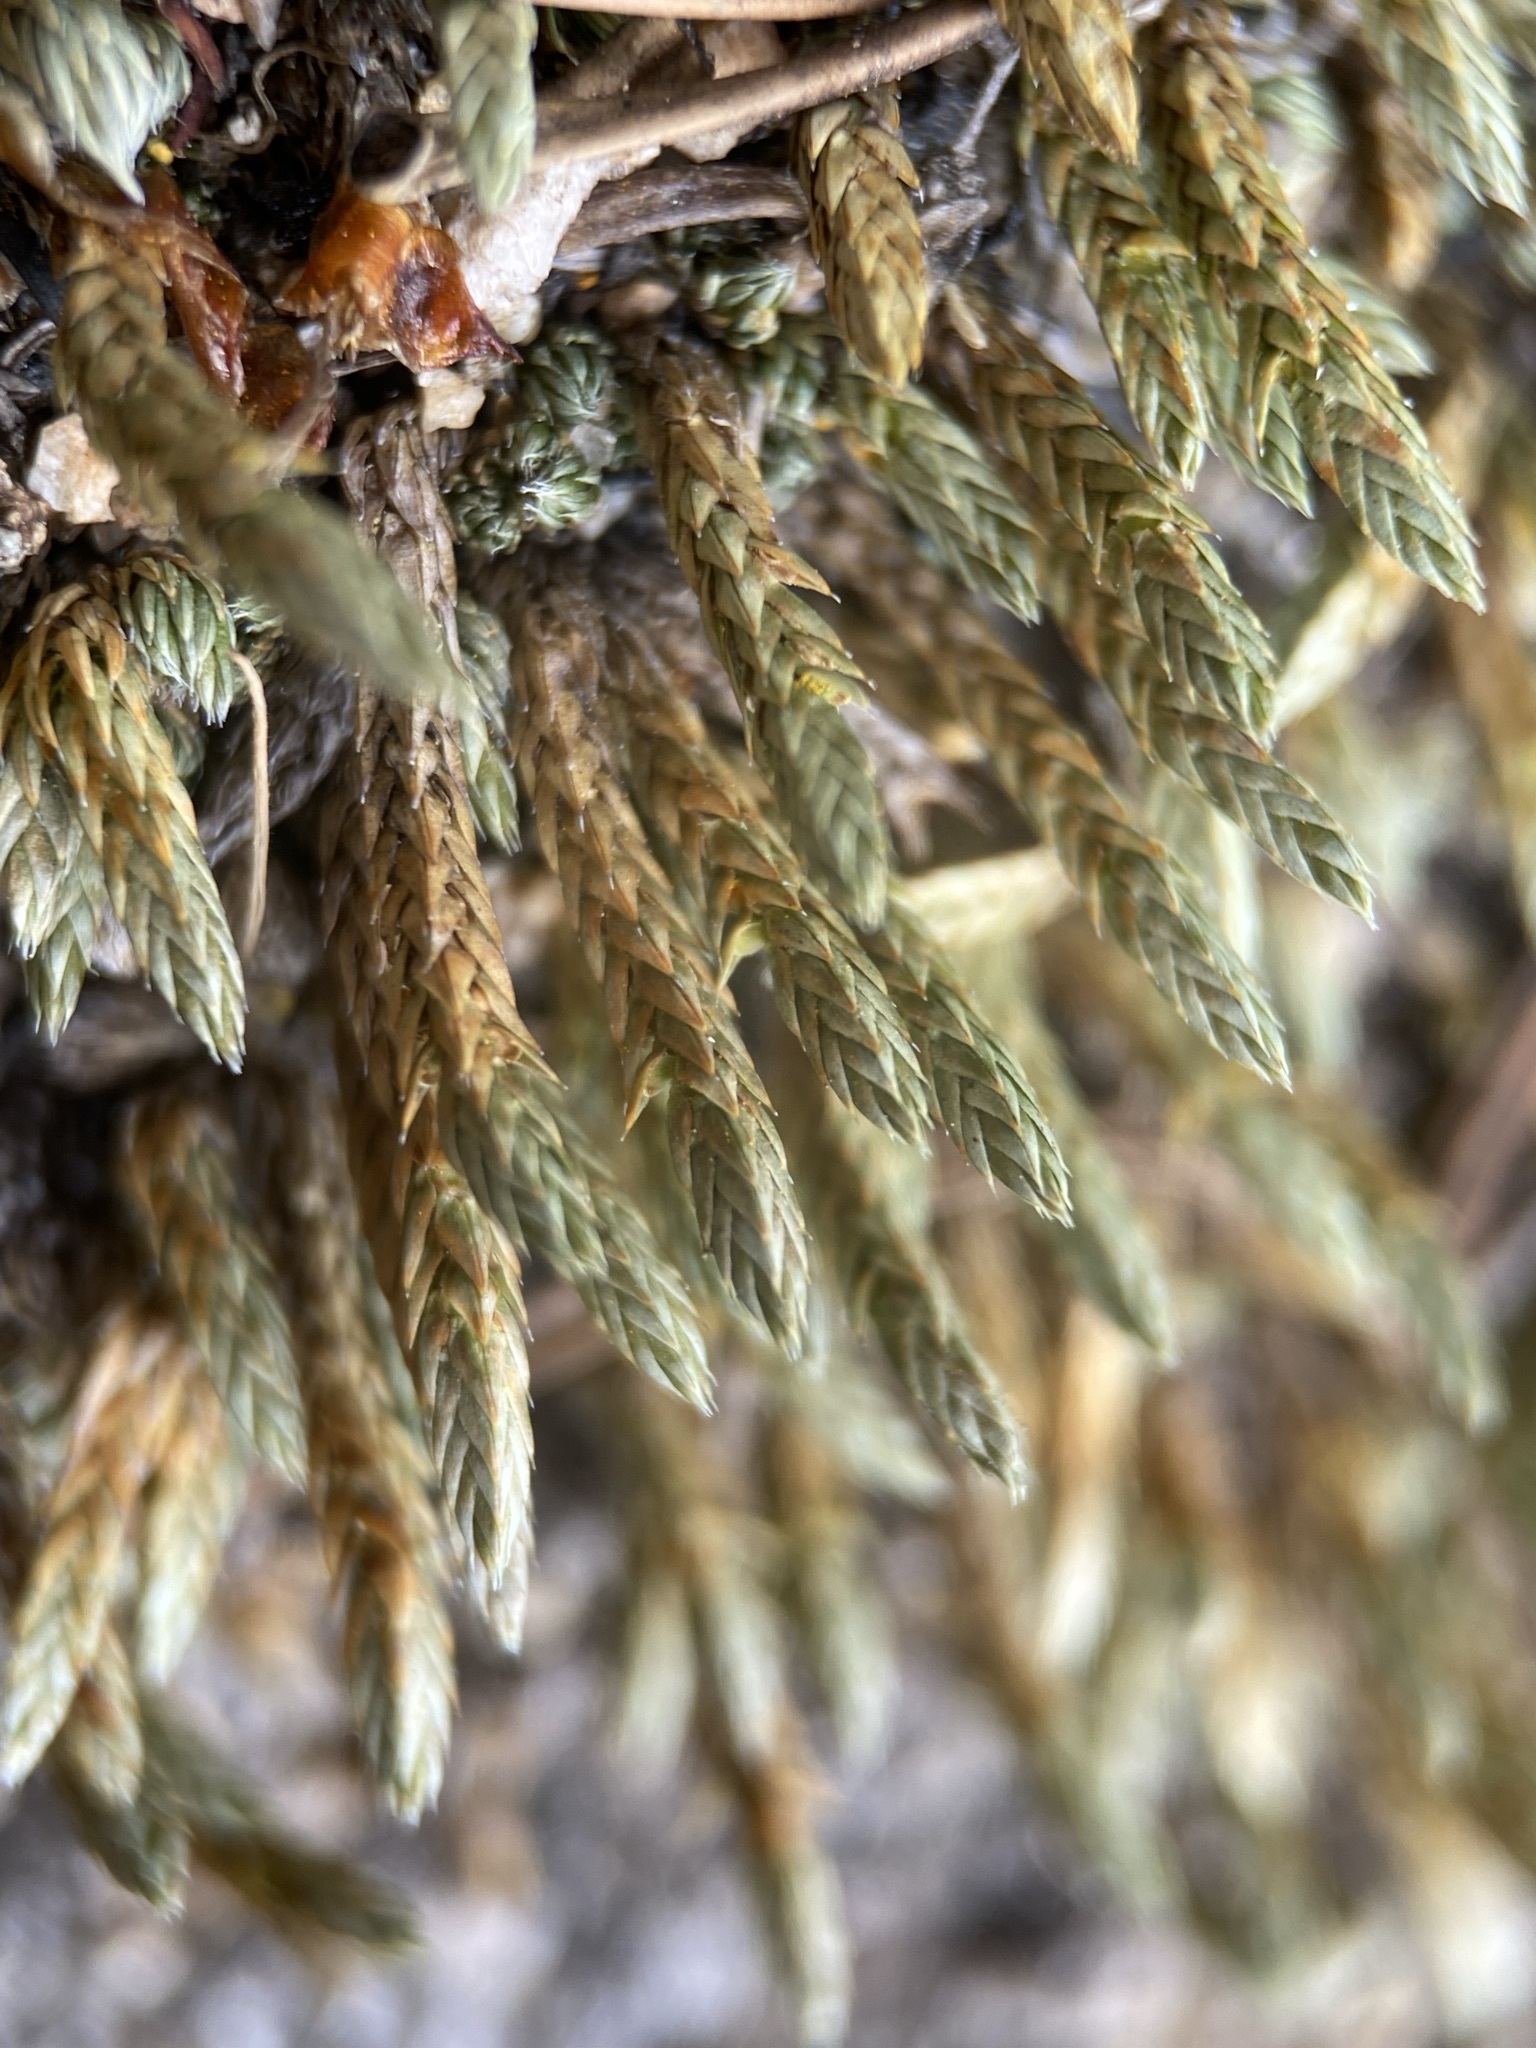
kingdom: Plantae
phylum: Tracheophyta
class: Lycopodiopsida
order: Selaginellales
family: Selaginellaceae
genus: Selaginella
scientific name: Selaginella densa
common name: Mountain spike-moss
